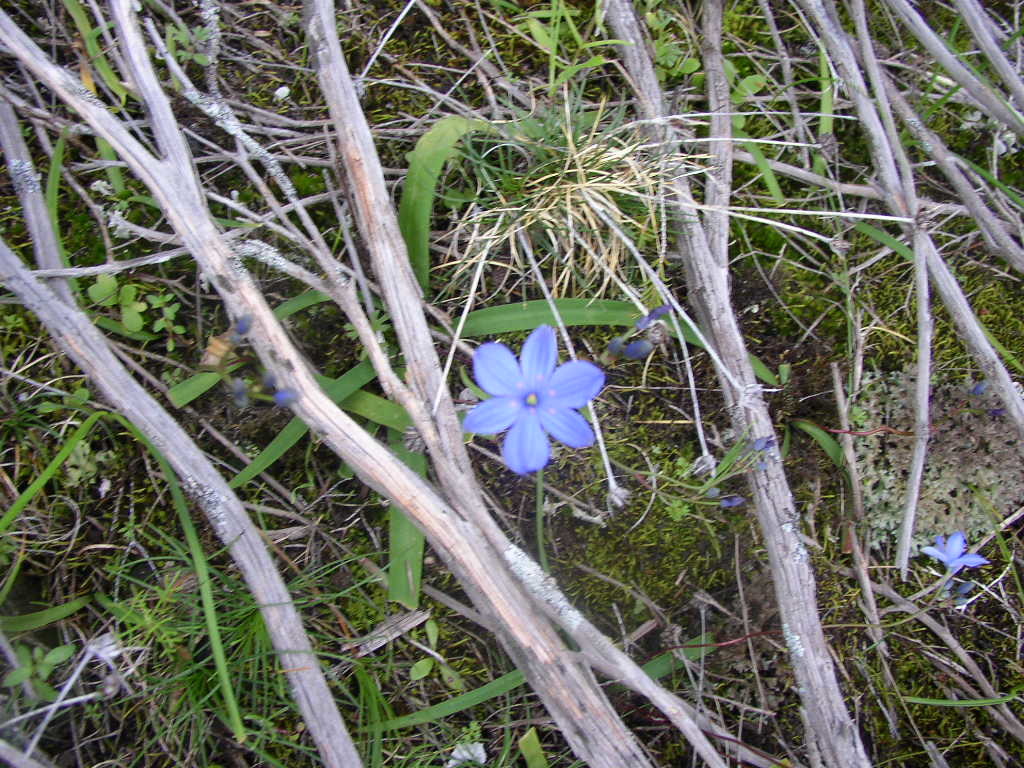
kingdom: Plantae
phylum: Tracheophyta
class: Liliopsida
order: Asparagales
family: Asphodelaceae
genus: Chamaescilla
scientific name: Chamaescilla corymbosa
